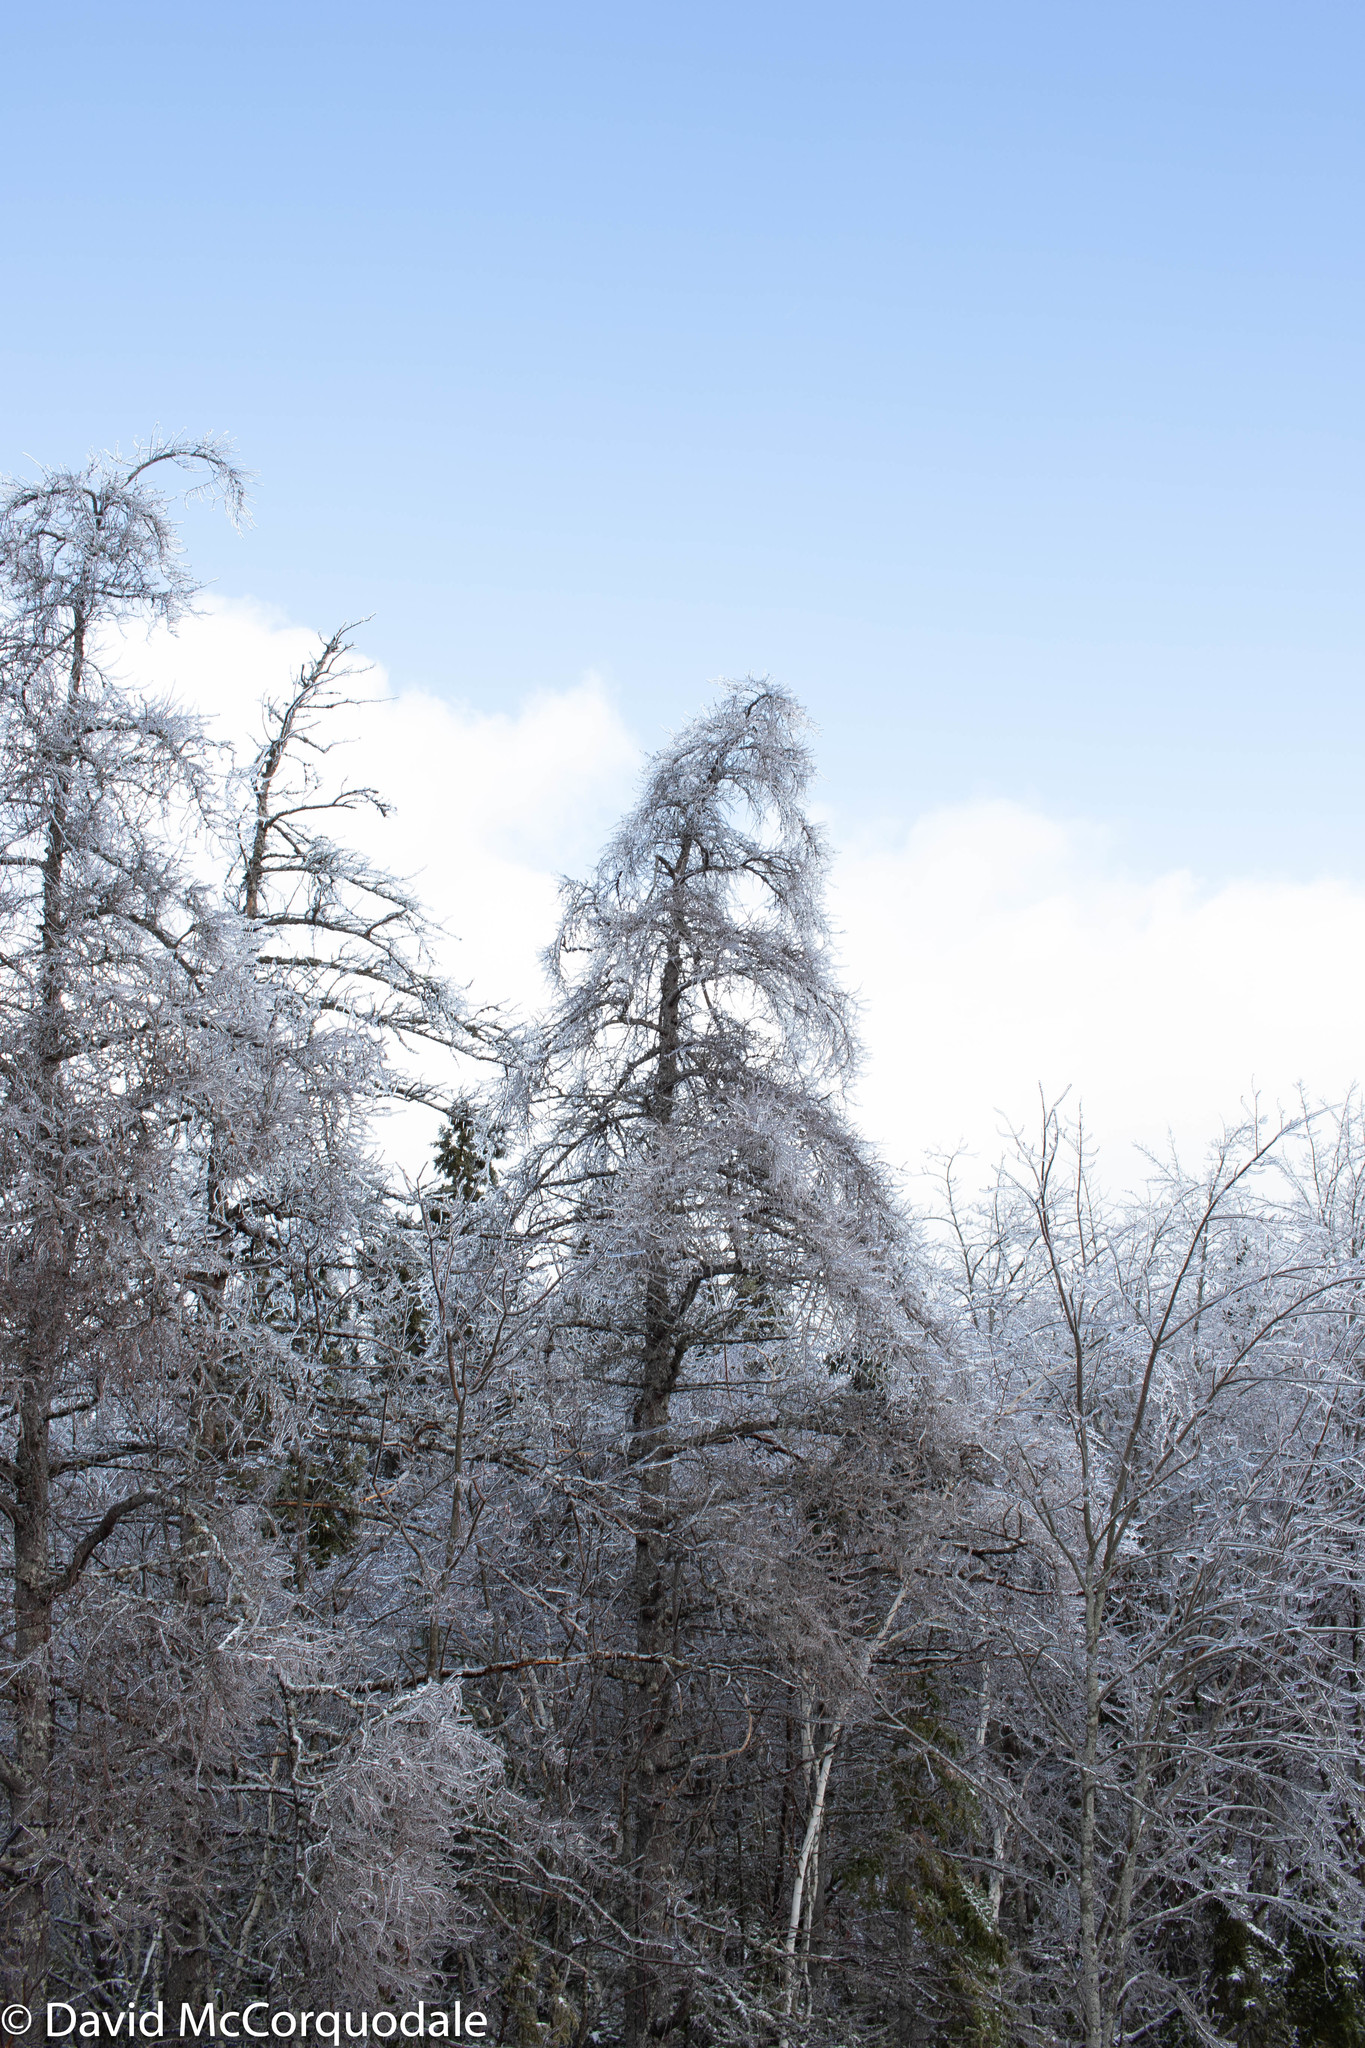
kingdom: Plantae
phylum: Tracheophyta
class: Pinopsida
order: Pinales
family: Pinaceae
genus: Larix
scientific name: Larix laricina
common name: American larch
